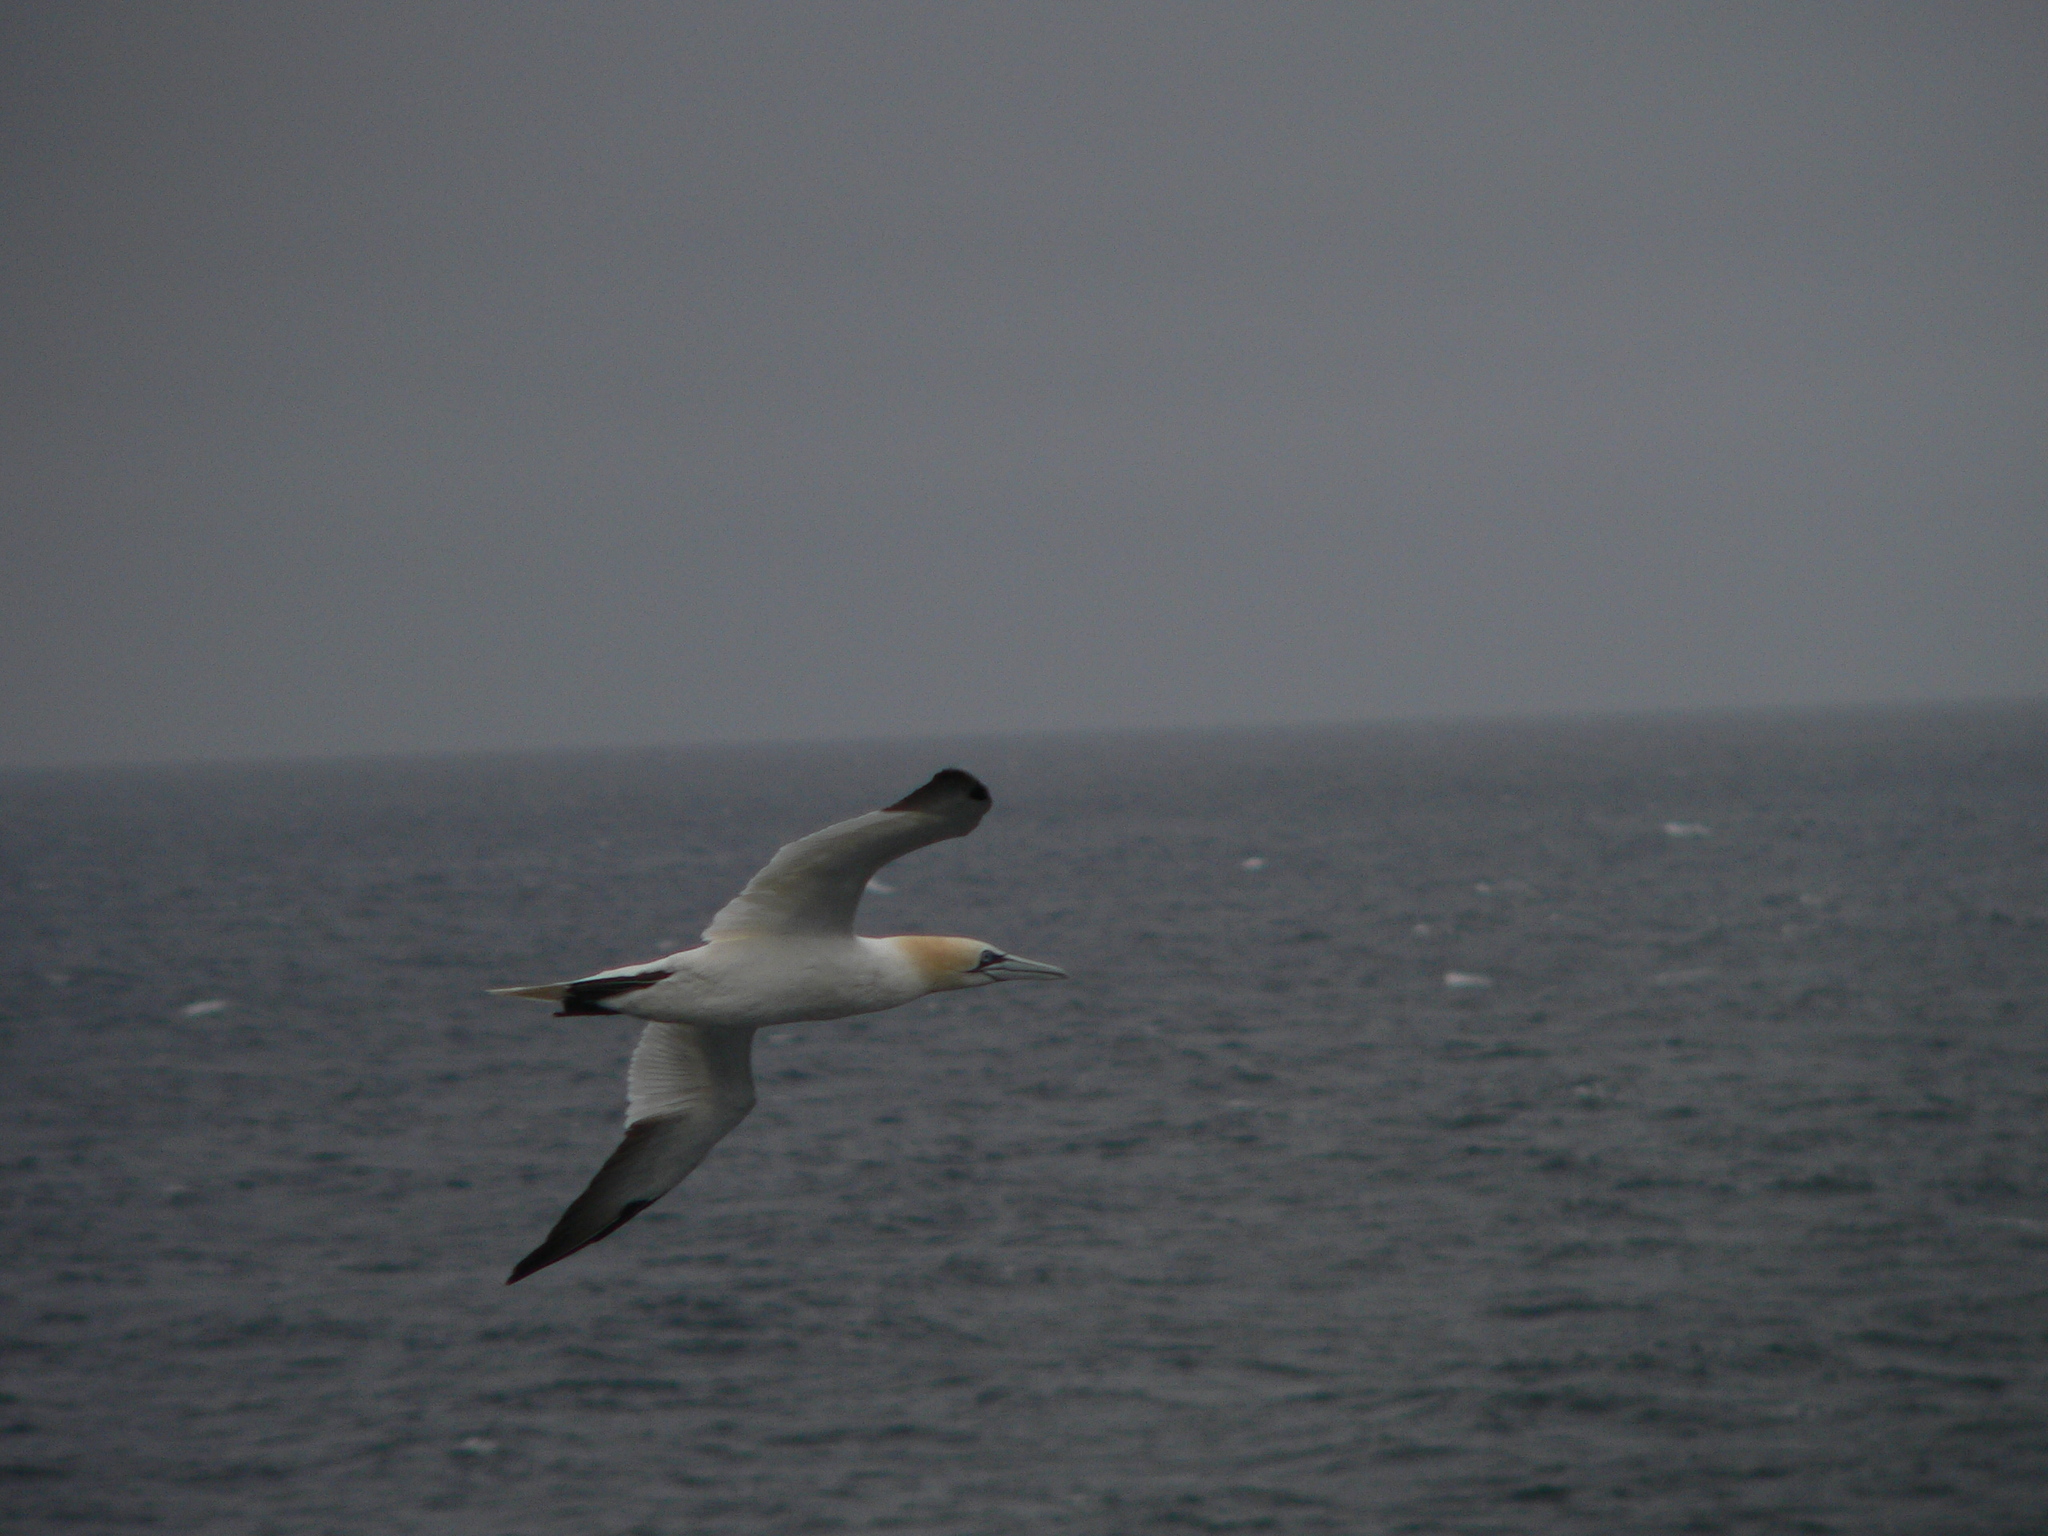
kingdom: Animalia
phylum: Chordata
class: Aves
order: Suliformes
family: Sulidae
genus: Morus
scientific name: Morus bassanus
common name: Northern gannet
